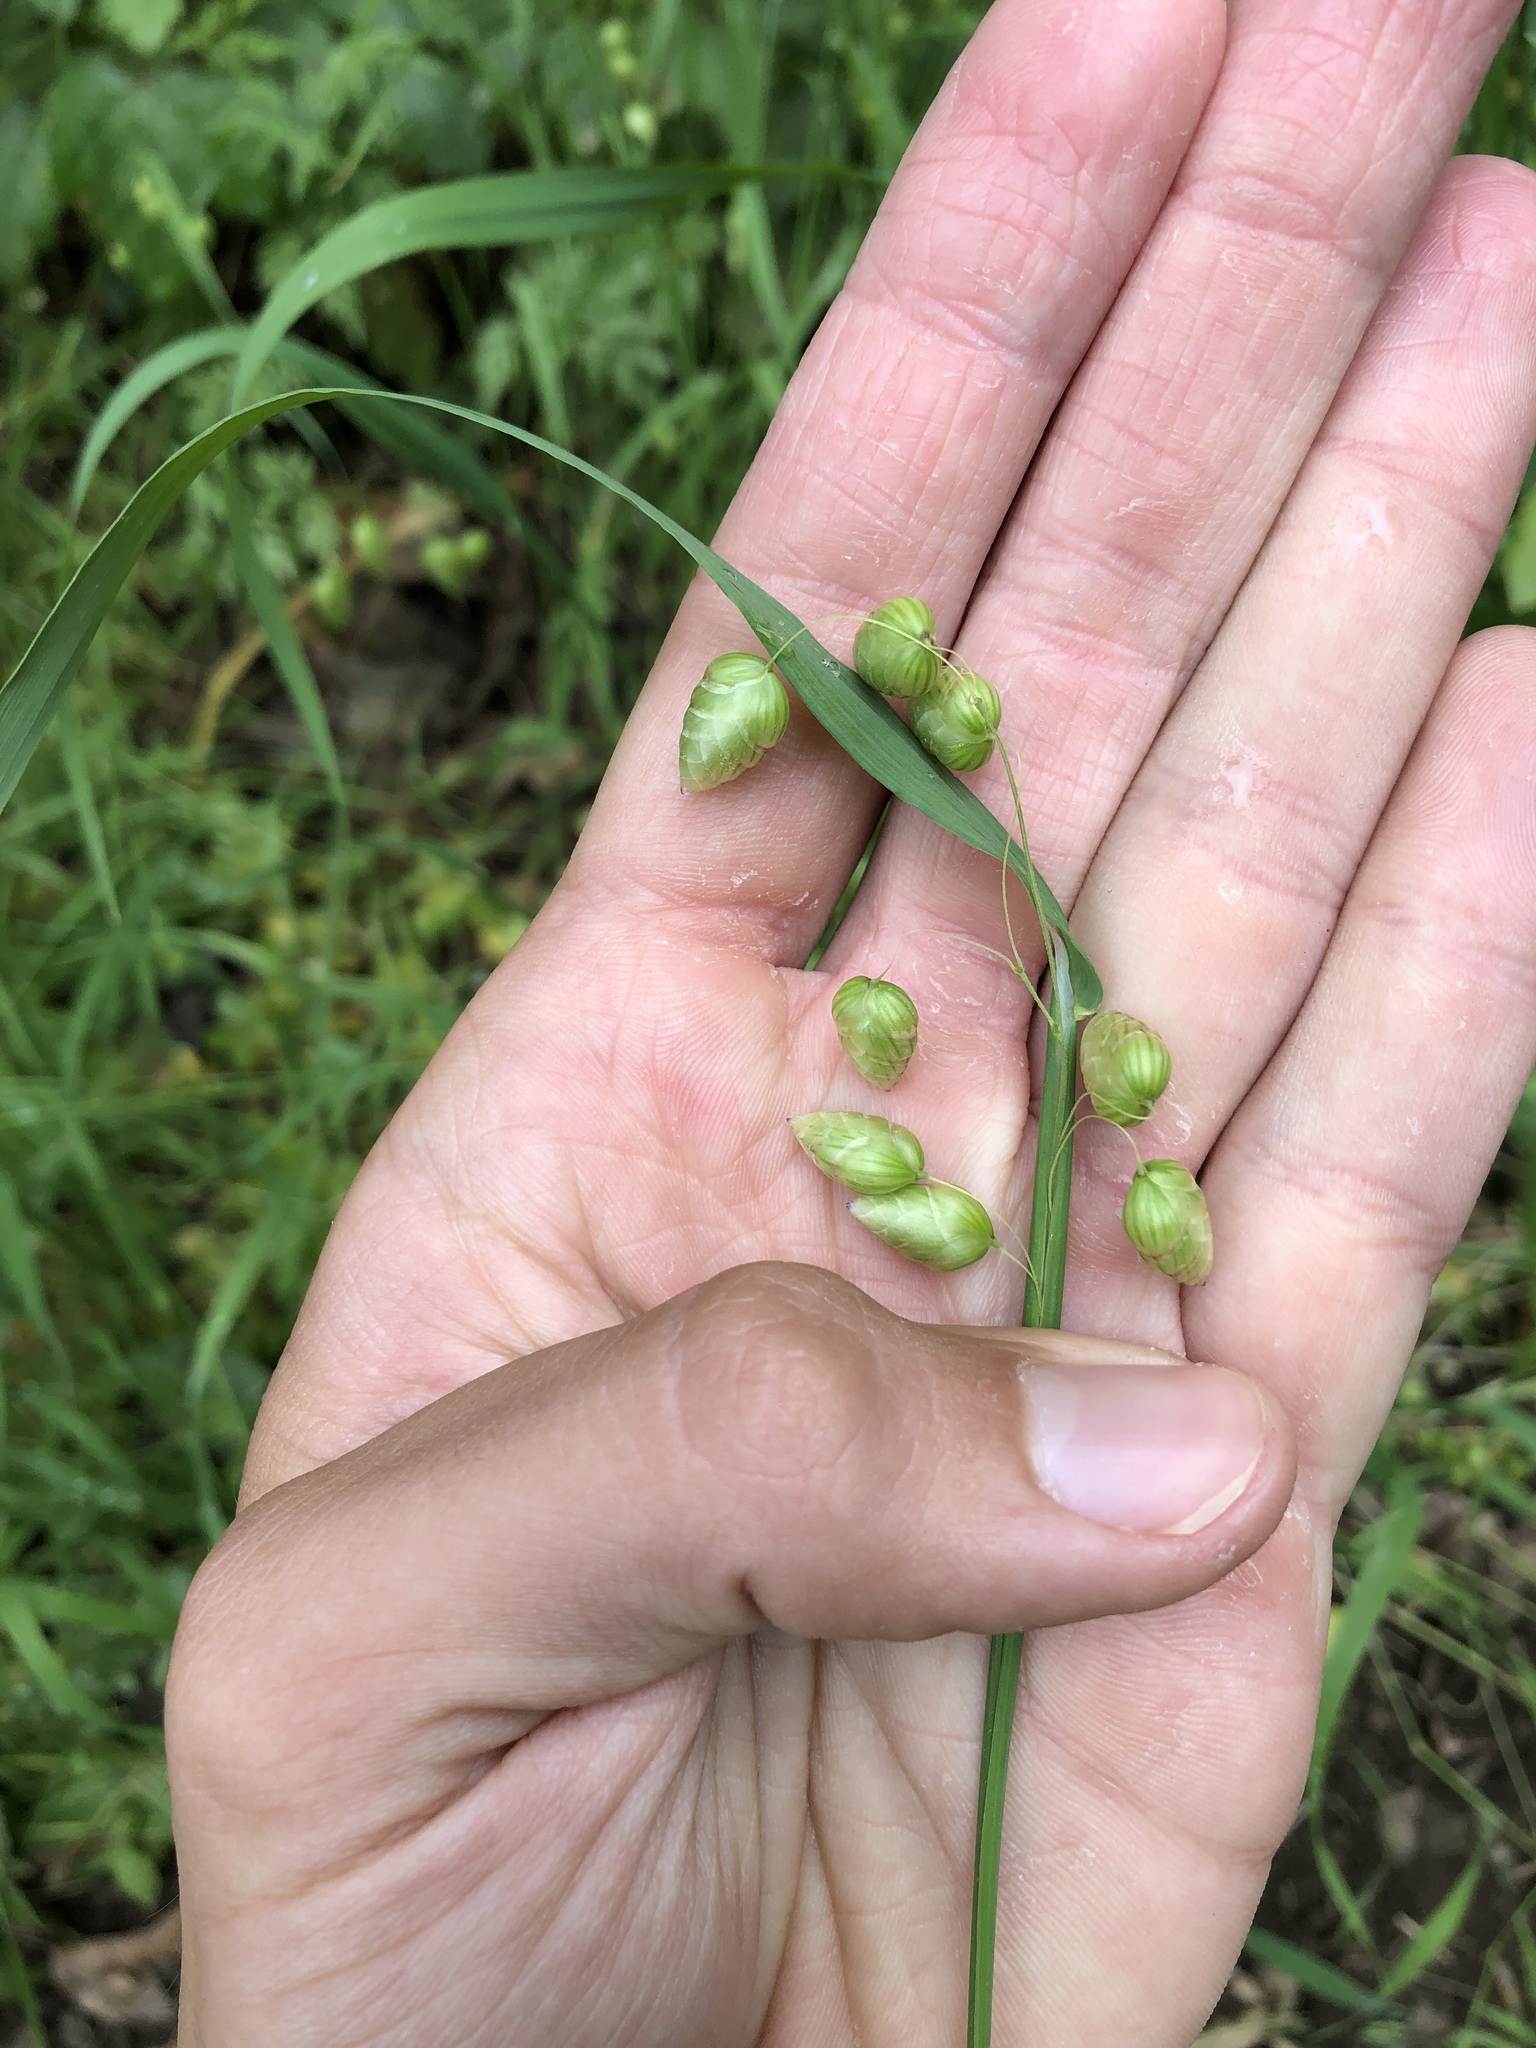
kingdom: Plantae
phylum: Tracheophyta
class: Liliopsida
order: Poales
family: Poaceae
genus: Briza
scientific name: Briza maxima
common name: Big quakinggrass
